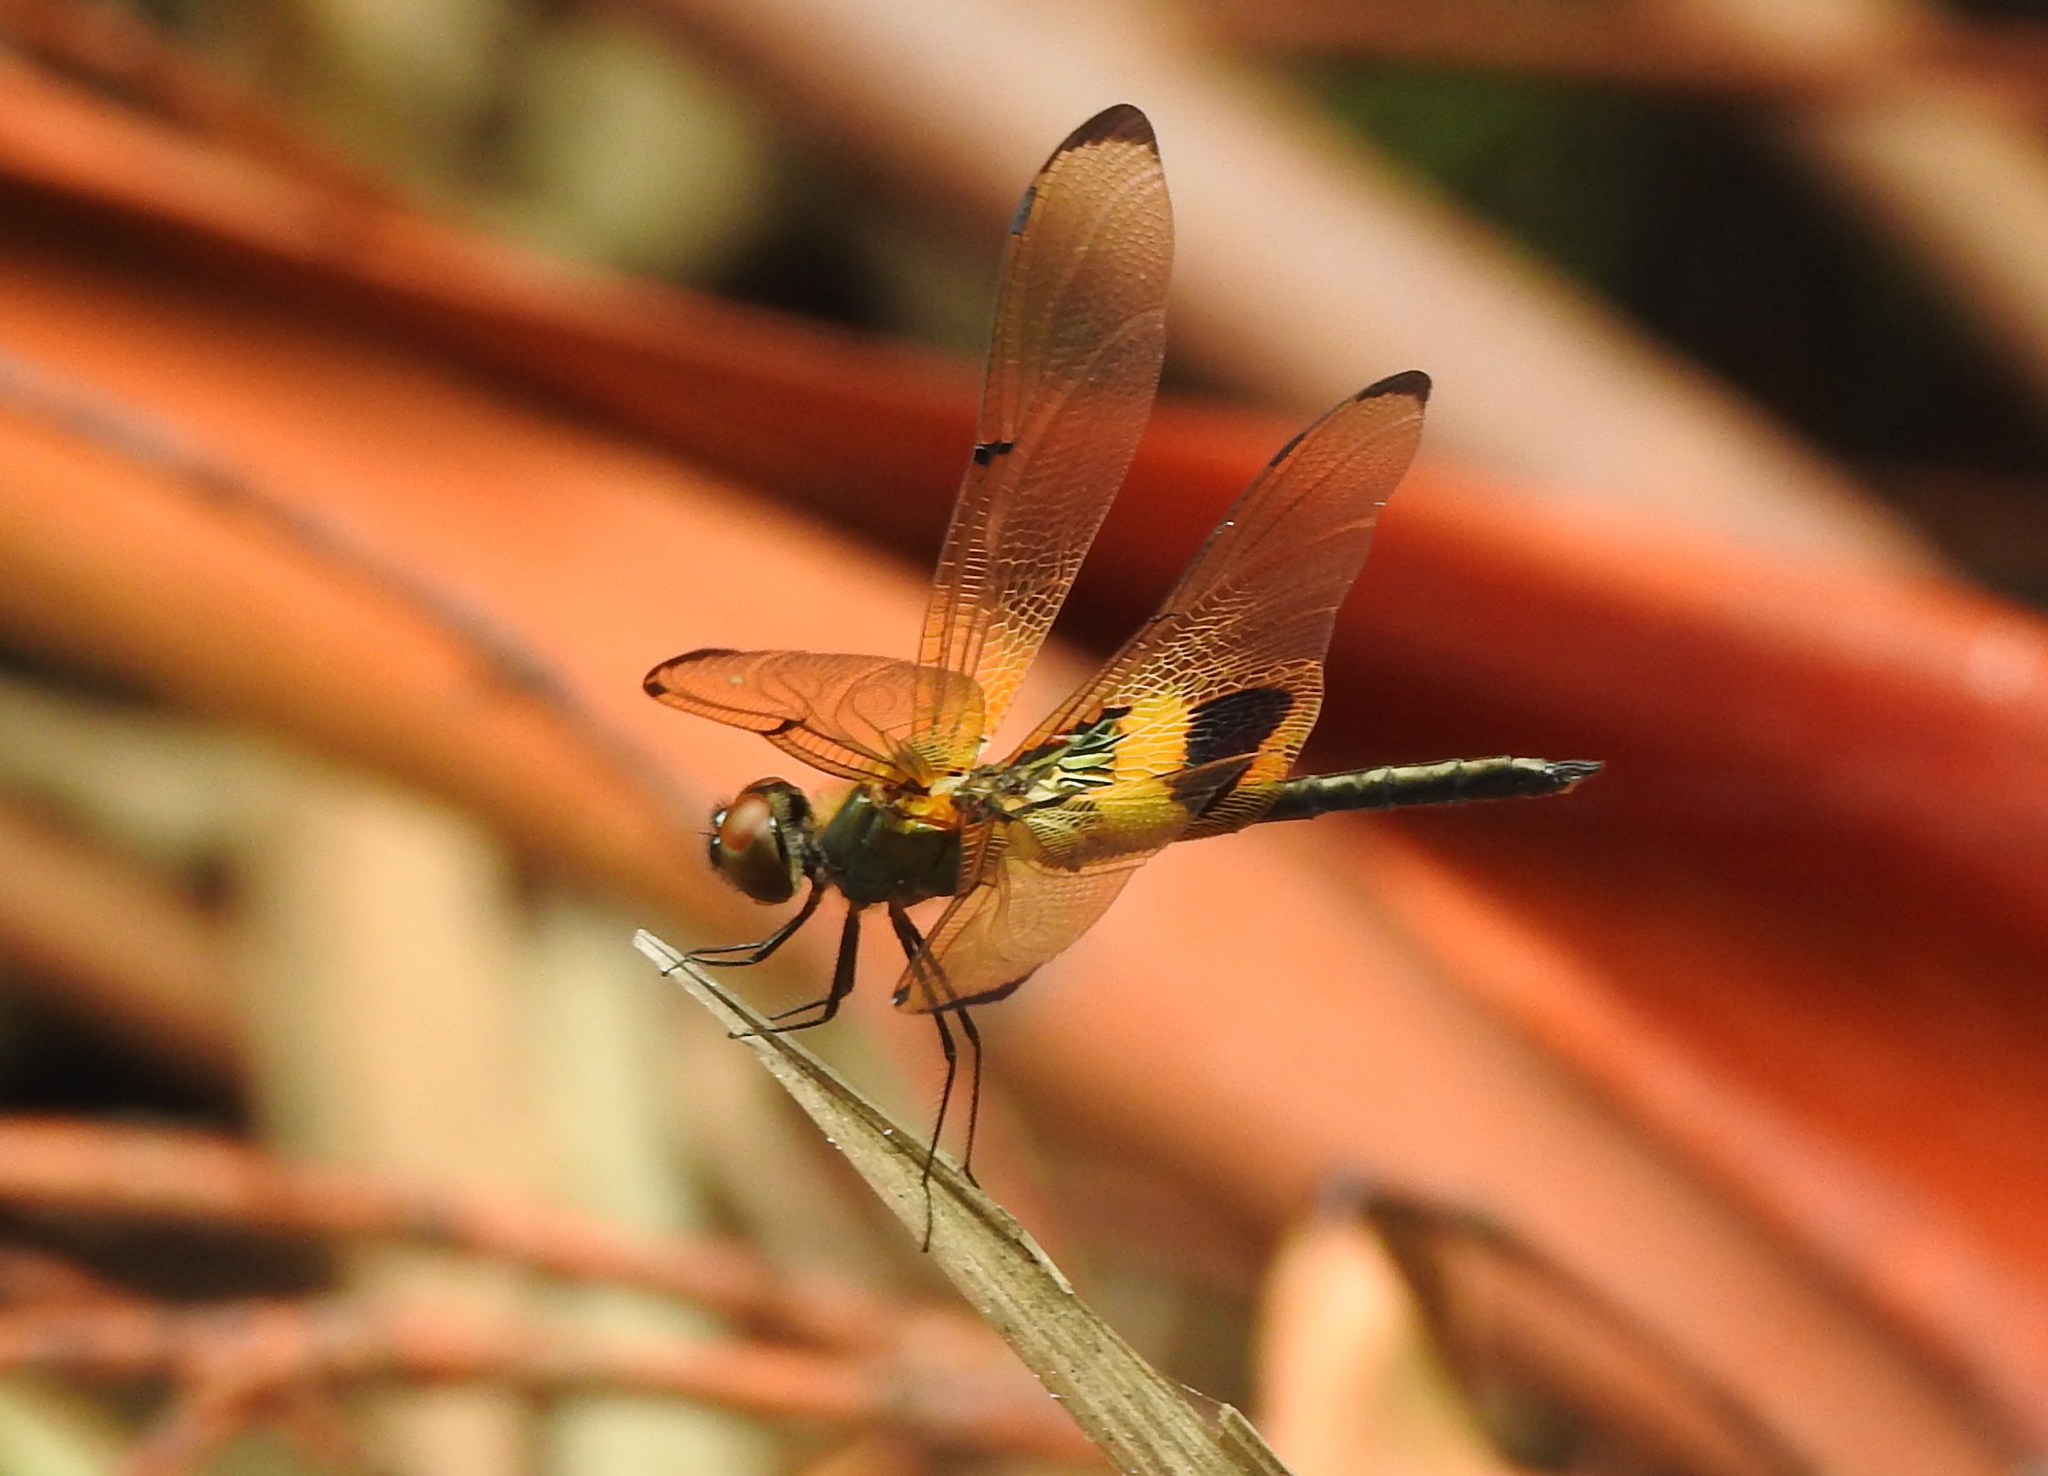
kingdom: Animalia
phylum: Arthropoda
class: Insecta
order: Odonata
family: Libellulidae
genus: Rhyothemis
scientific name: Rhyothemis phyllis
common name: Yellow-barred flutterer
